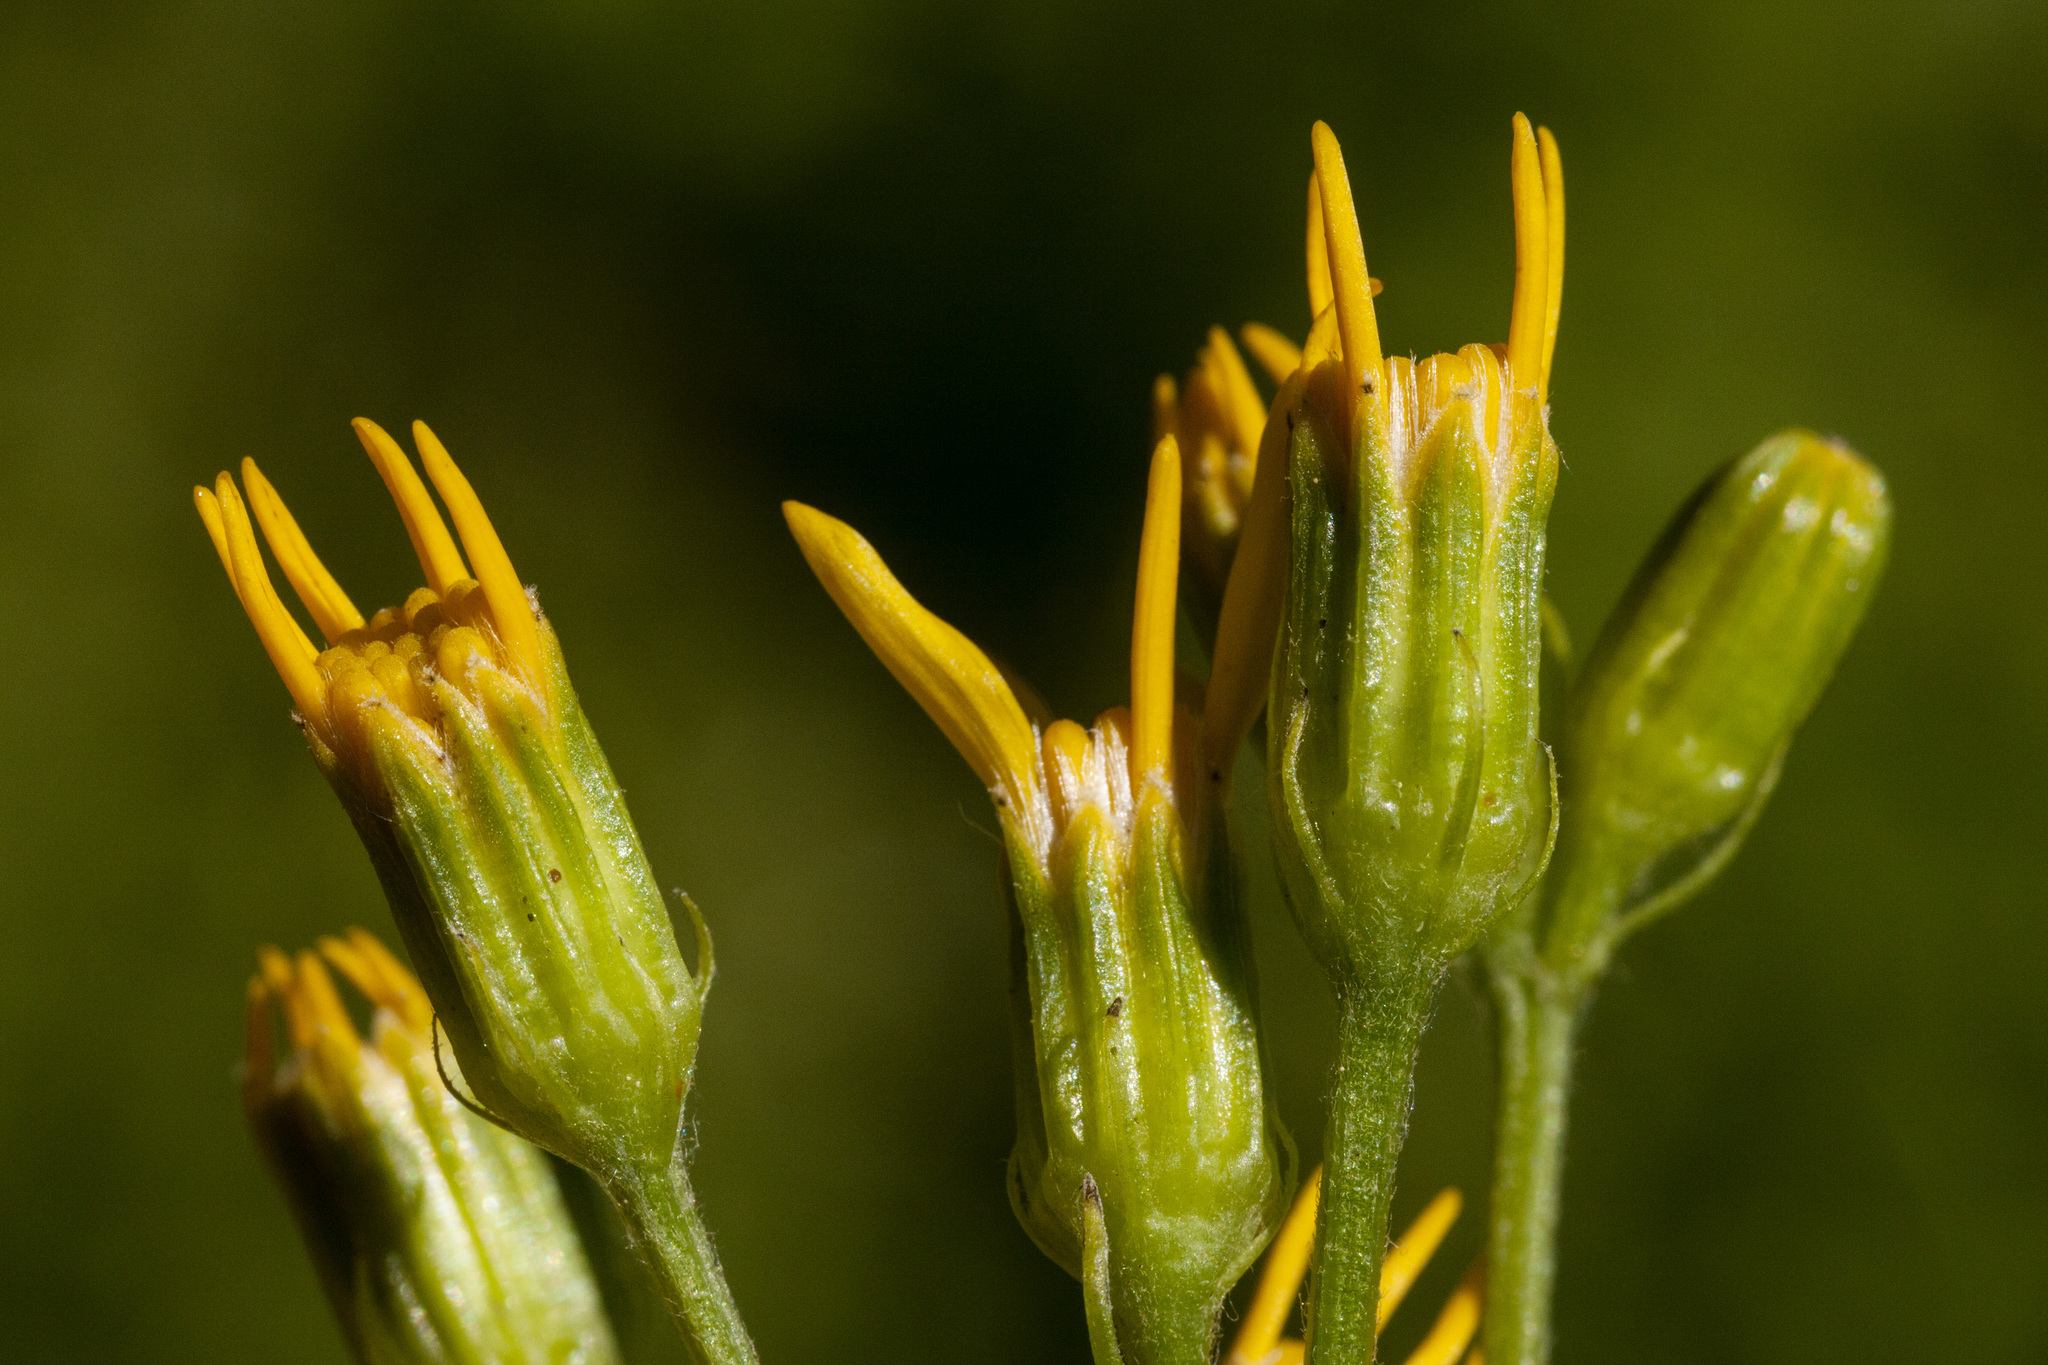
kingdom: Plantae
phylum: Tracheophyta
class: Magnoliopsida
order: Asterales
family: Asteraceae
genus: Senecio
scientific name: Senecio triangularis
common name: Arrowleaf butterweed
